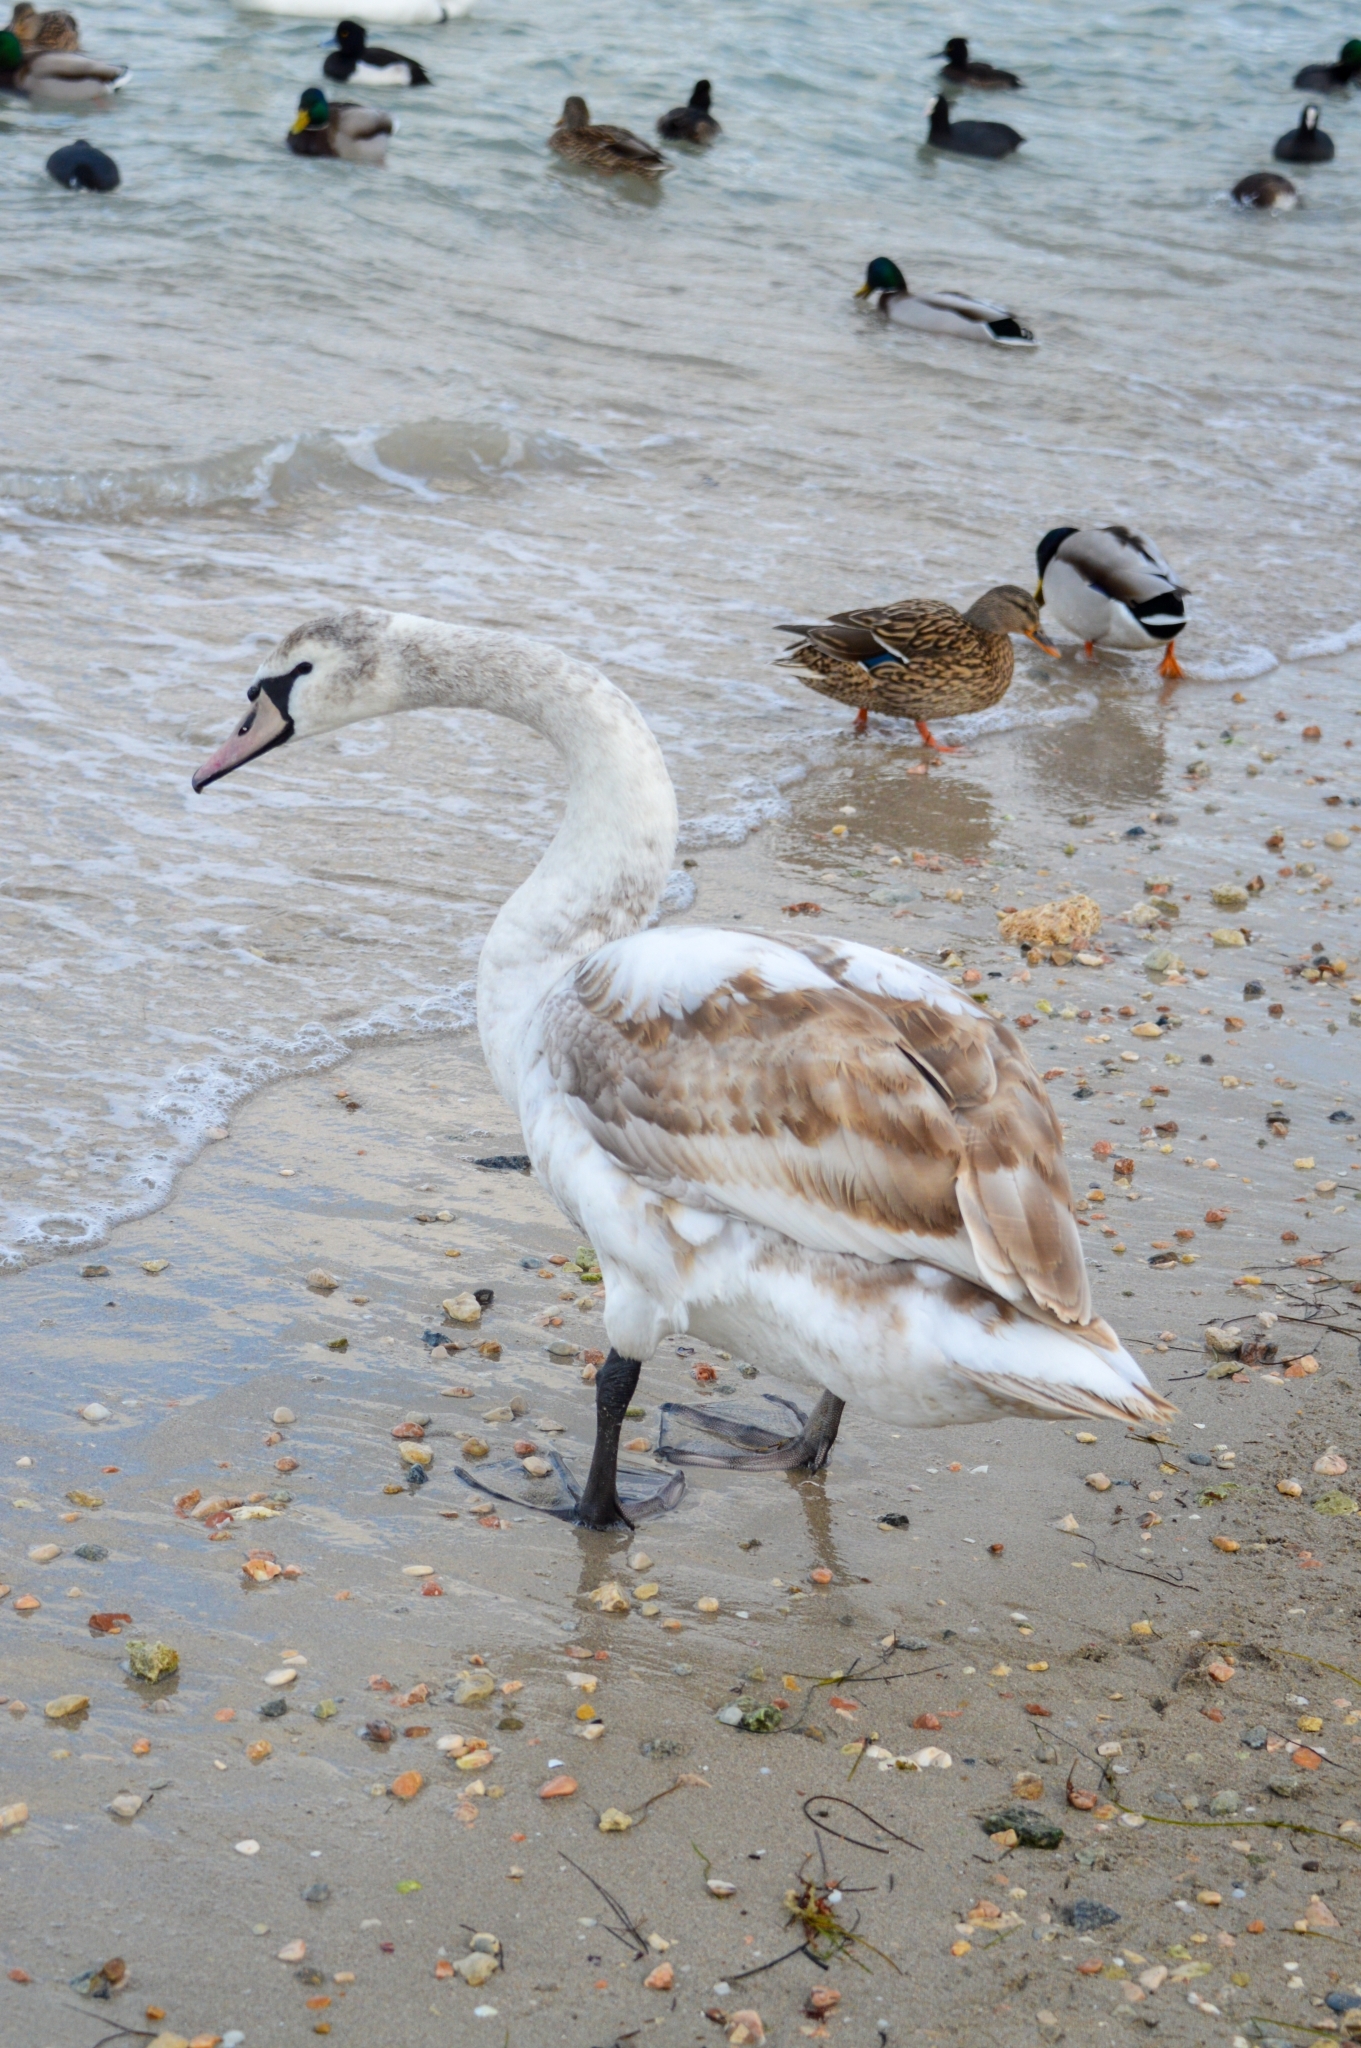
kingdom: Animalia
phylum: Chordata
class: Aves
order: Anseriformes
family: Anatidae
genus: Cygnus
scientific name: Cygnus olor
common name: Mute swan
